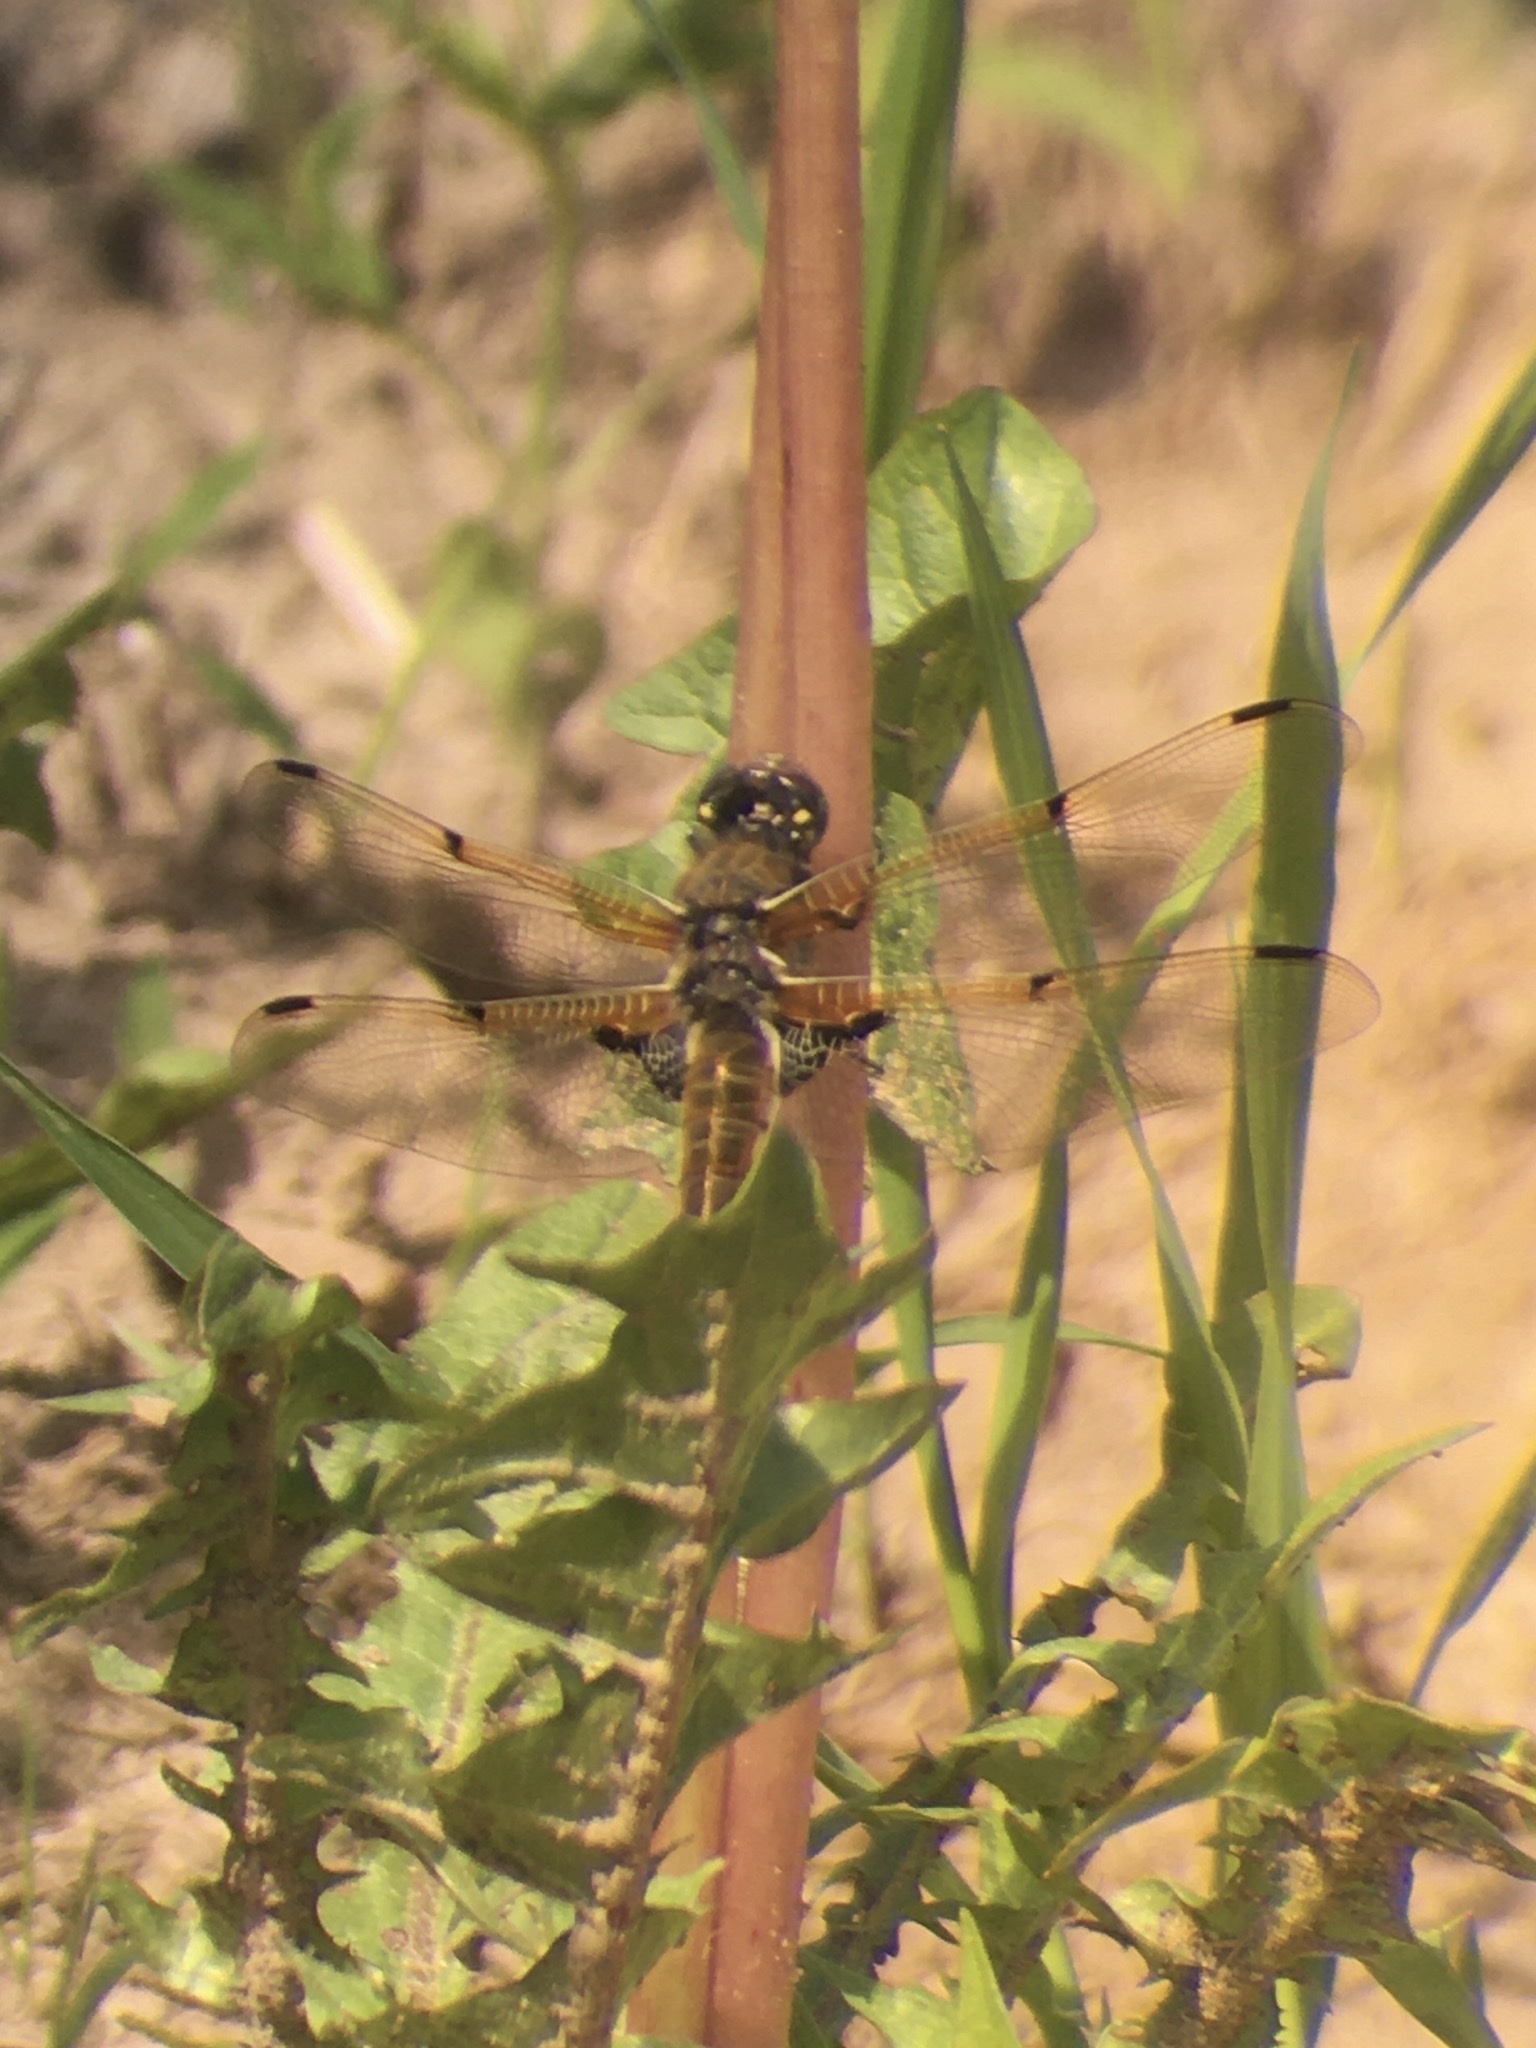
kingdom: Animalia
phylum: Arthropoda
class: Insecta
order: Odonata
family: Libellulidae
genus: Libellula
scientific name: Libellula quadrimaculata
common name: Four-spotted chaser
